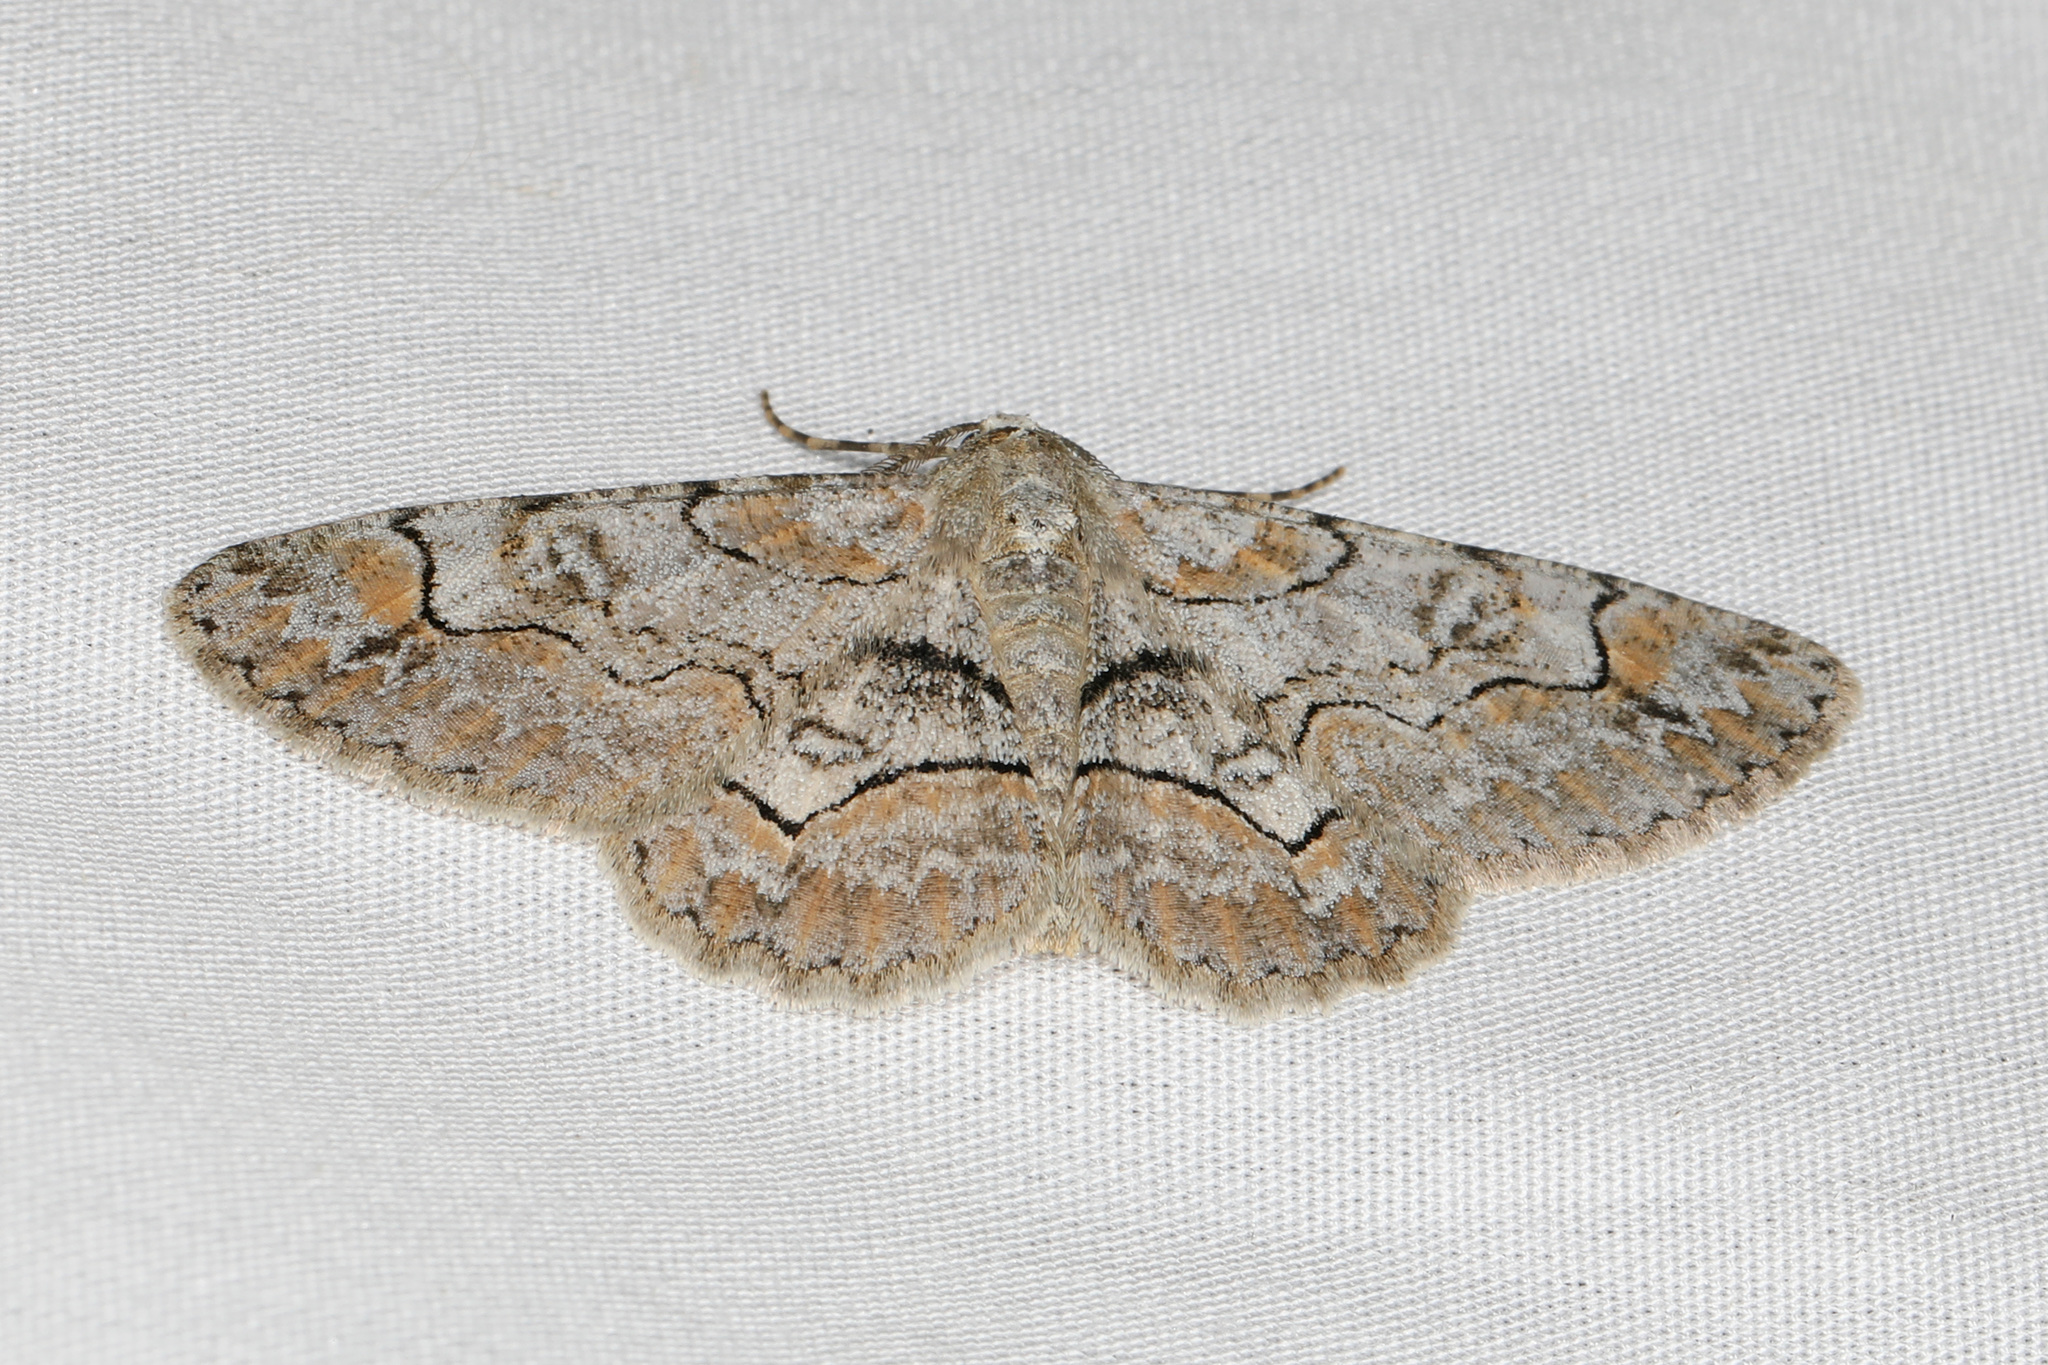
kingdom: Animalia
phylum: Arthropoda
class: Insecta
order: Lepidoptera
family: Geometridae
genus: Iridopsis
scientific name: Iridopsis larvaria
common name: Bent-line gray
